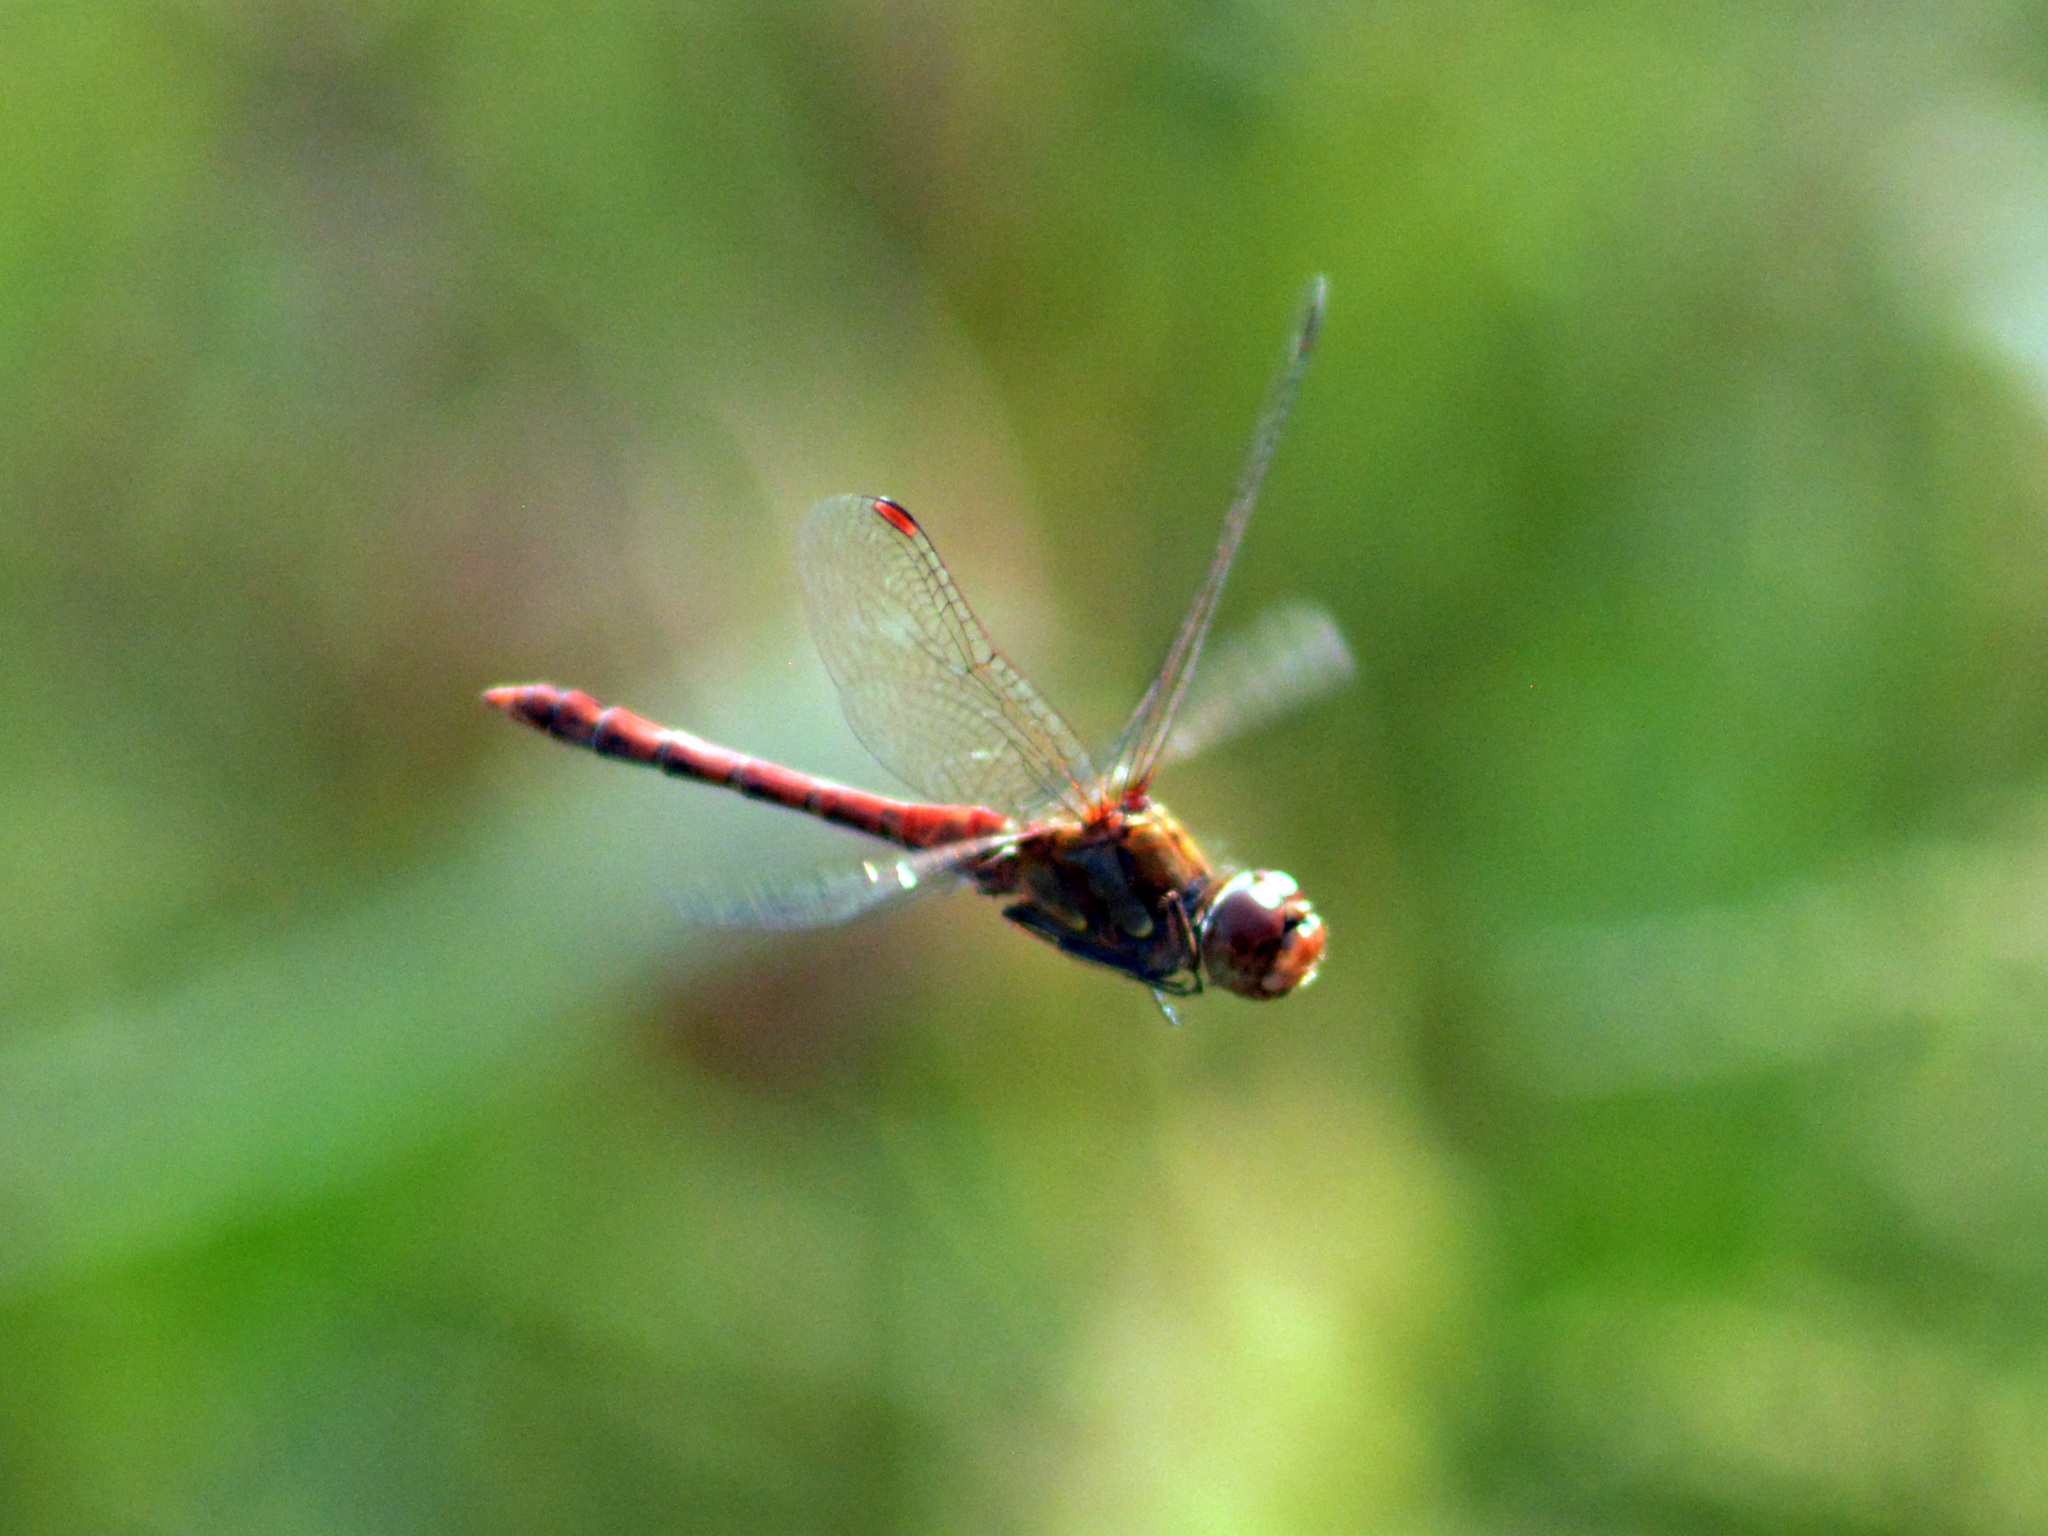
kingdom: Animalia
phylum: Arthropoda
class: Insecta
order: Odonata
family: Libellulidae
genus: Sympetrum
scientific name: Sympetrum striolatum
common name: Common darter
